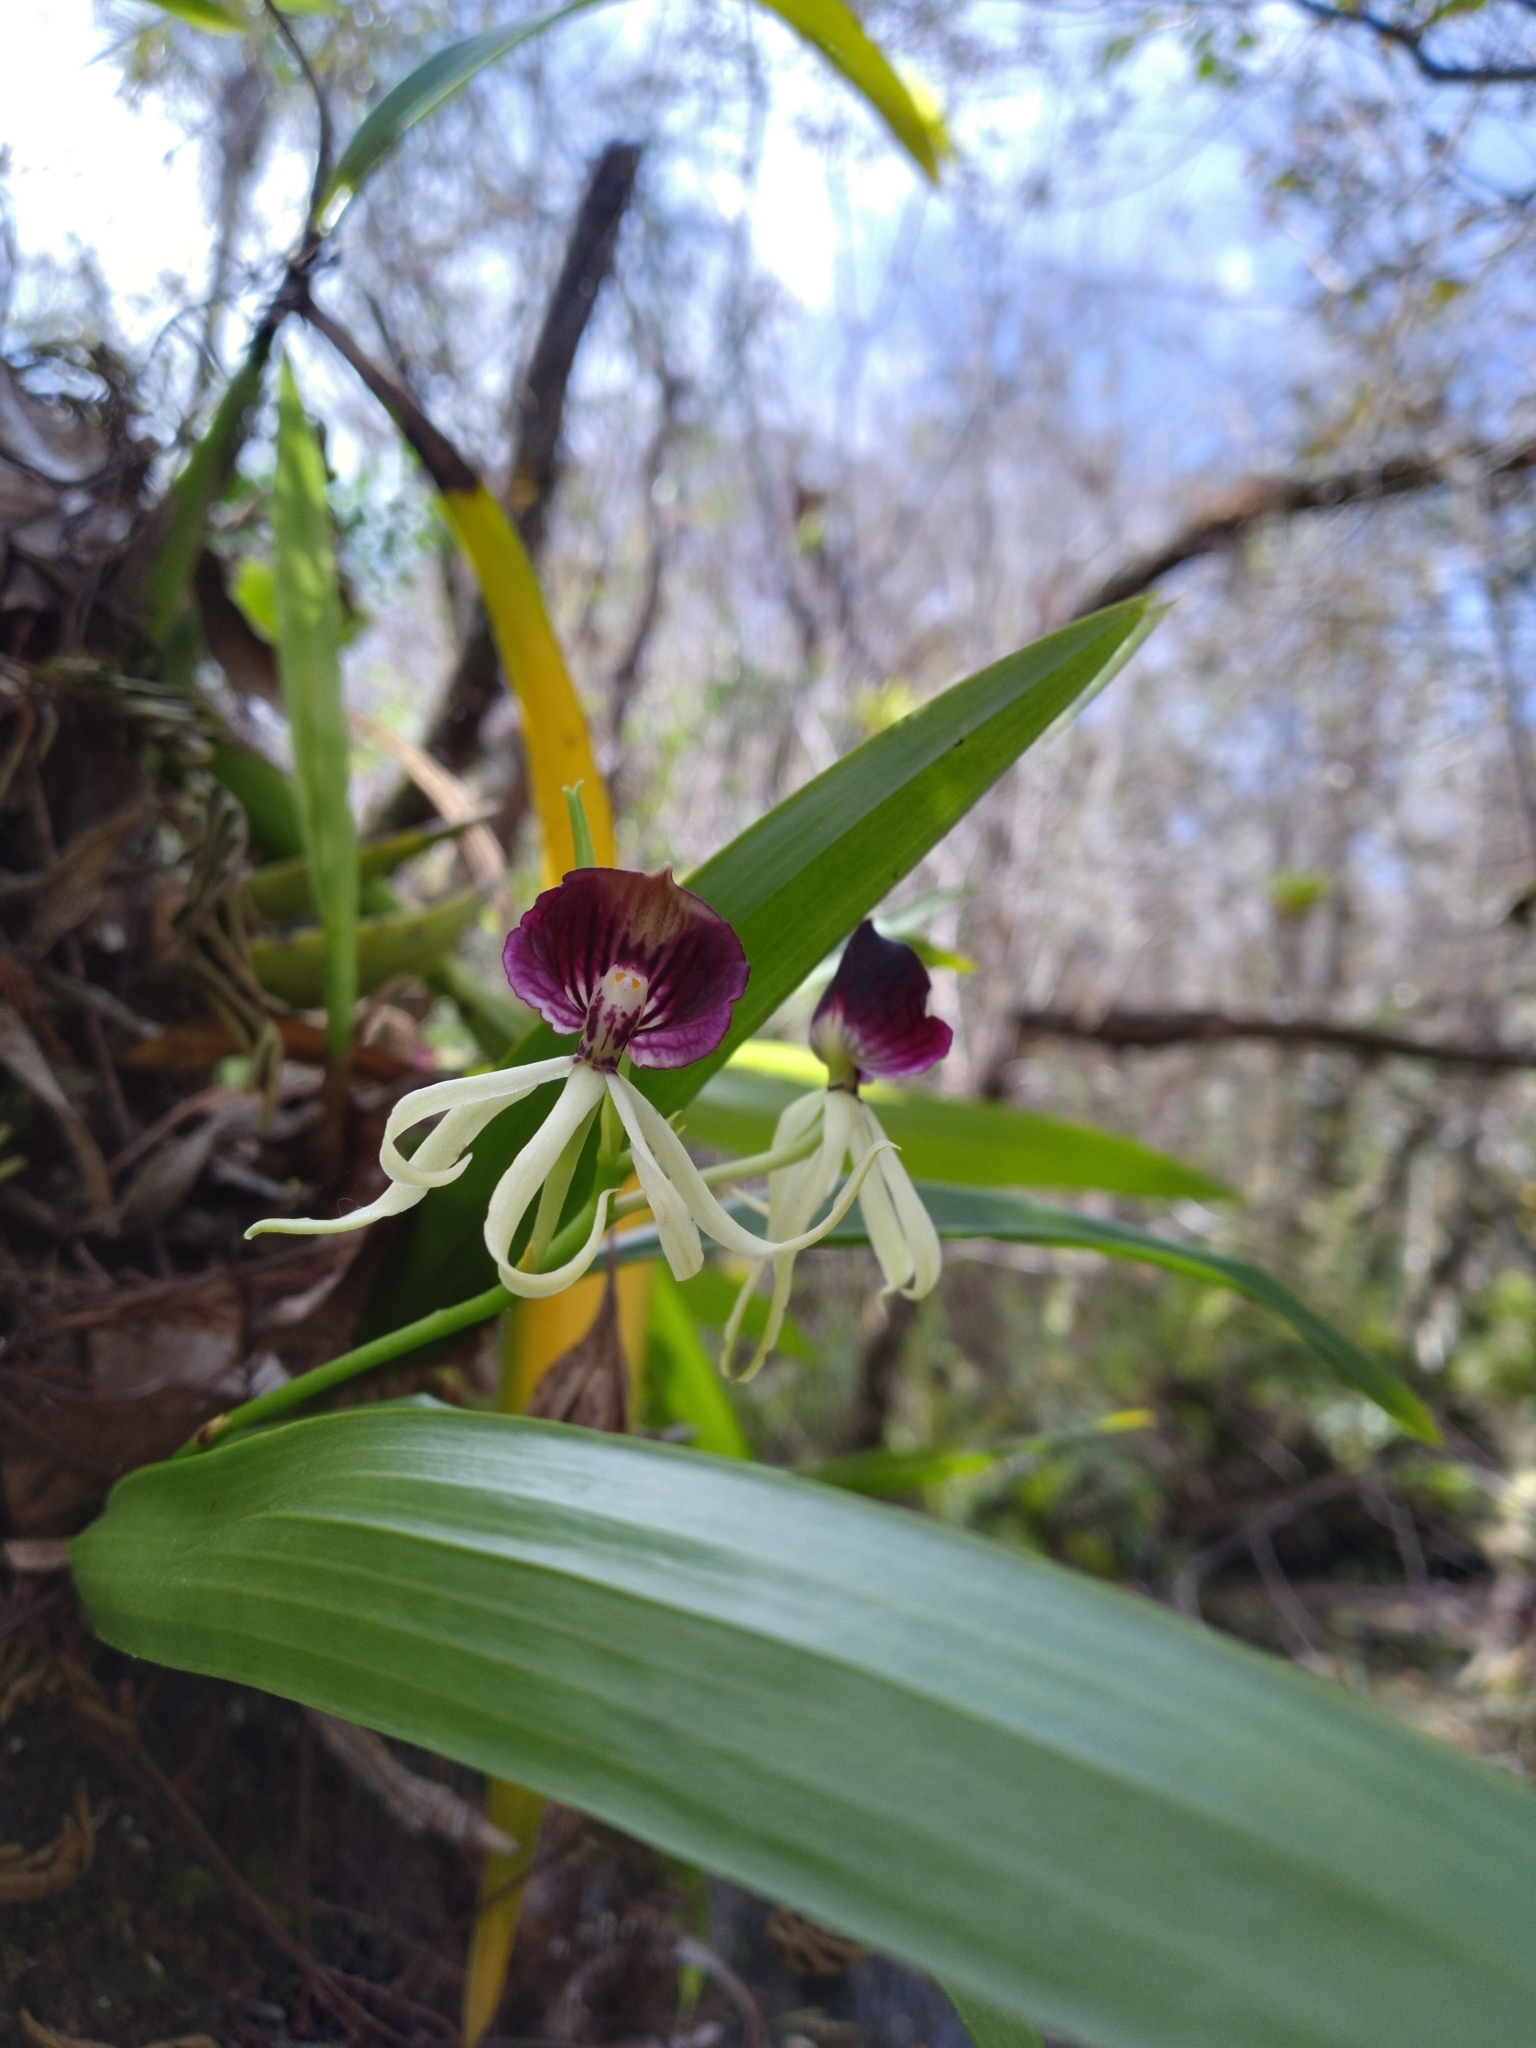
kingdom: Plantae
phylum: Tracheophyta
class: Liliopsida
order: Asparagales
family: Orchidaceae
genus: Prosthechea
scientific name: Prosthechea cochleata
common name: Clamshell orchid
